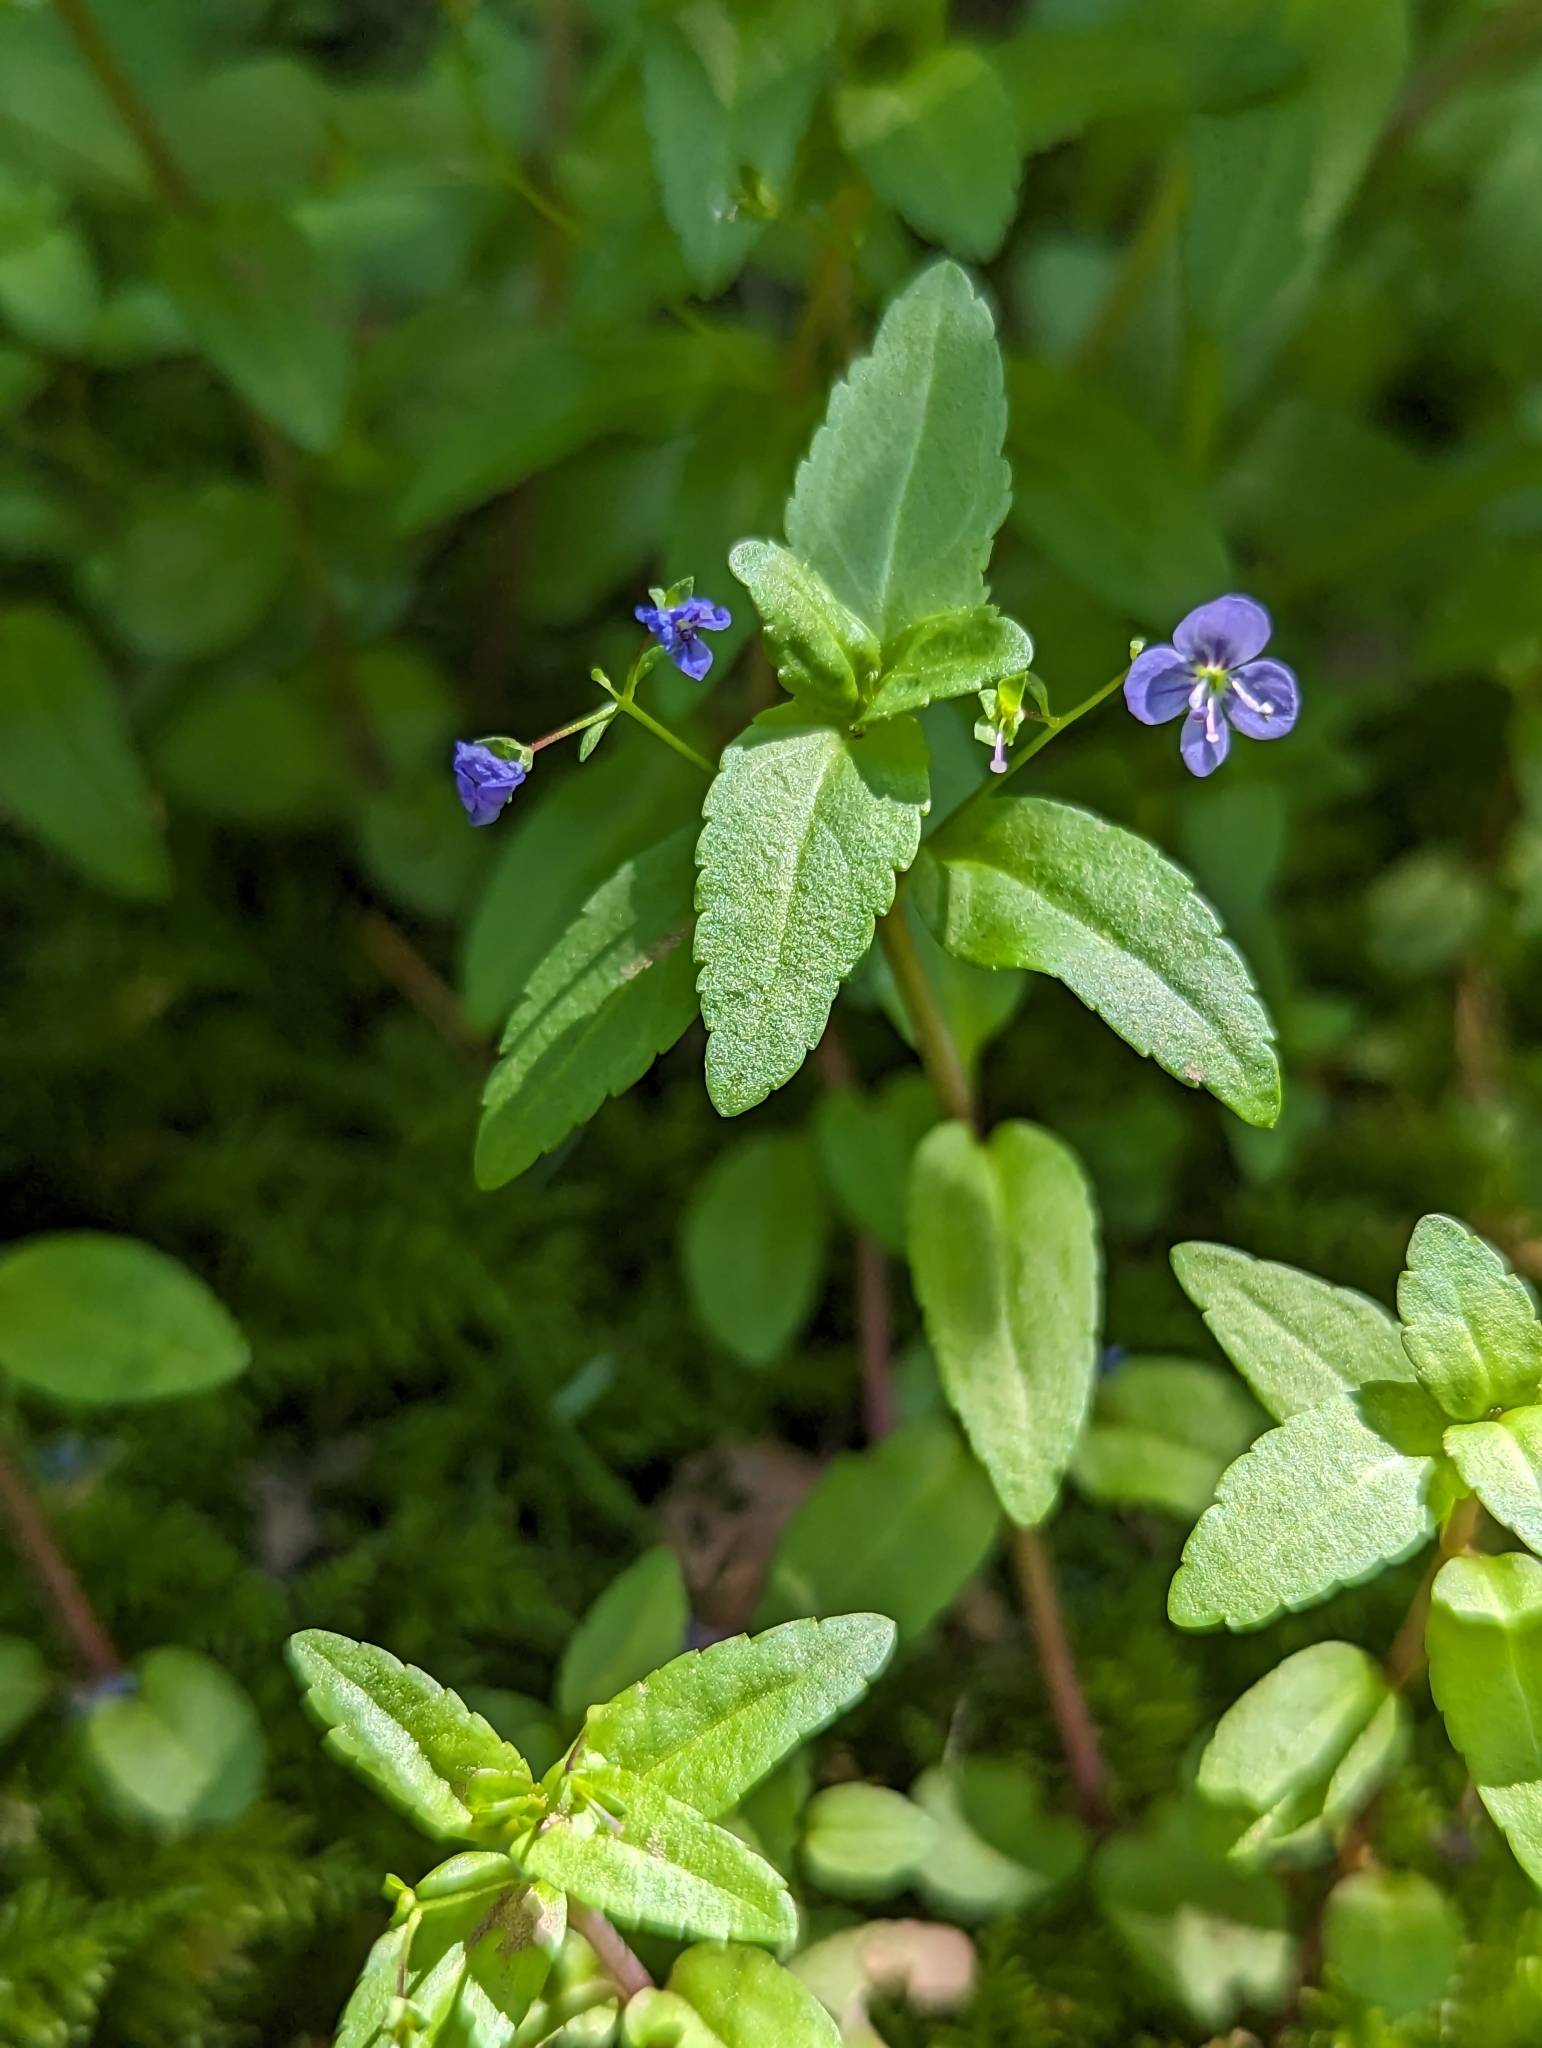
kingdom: Plantae
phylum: Tracheophyta
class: Magnoliopsida
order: Lamiales
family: Plantaginaceae
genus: Veronica
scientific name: Veronica americana
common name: American brooklime
